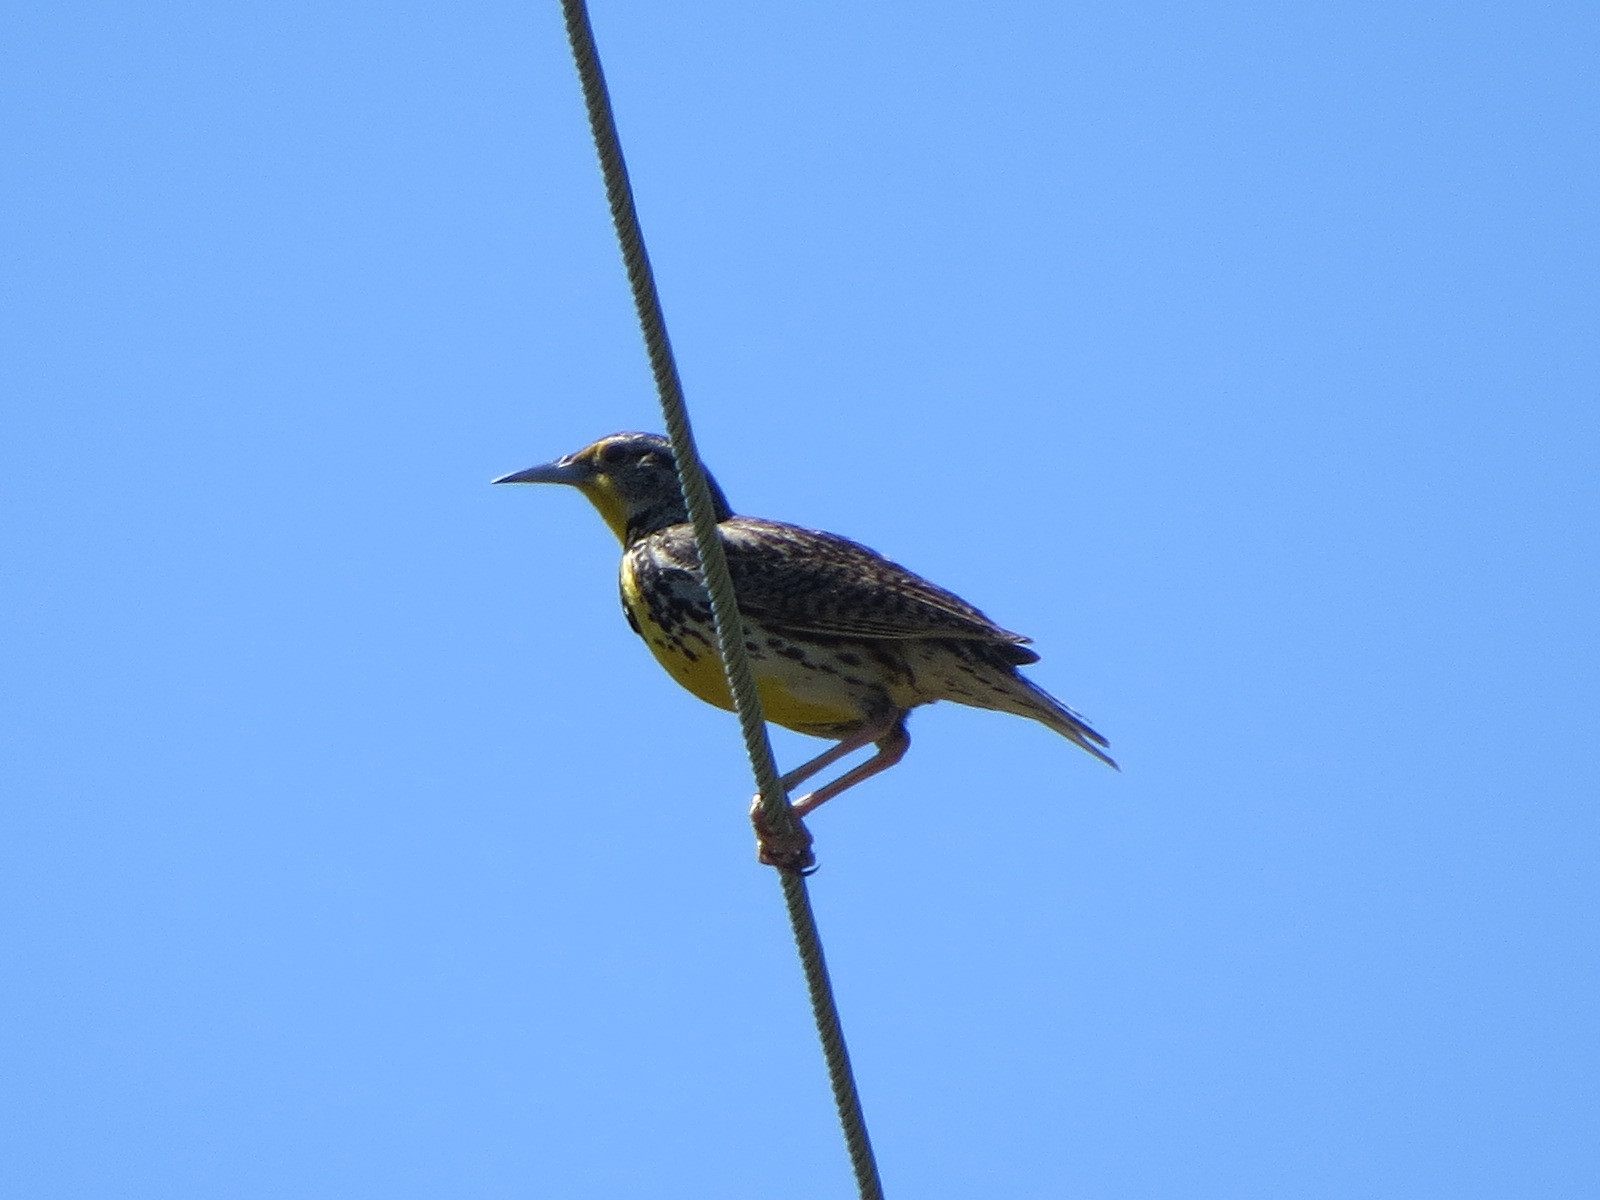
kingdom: Animalia
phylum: Chordata
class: Aves
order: Passeriformes
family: Icteridae
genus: Sturnella
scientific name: Sturnella neglecta
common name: Western meadowlark
